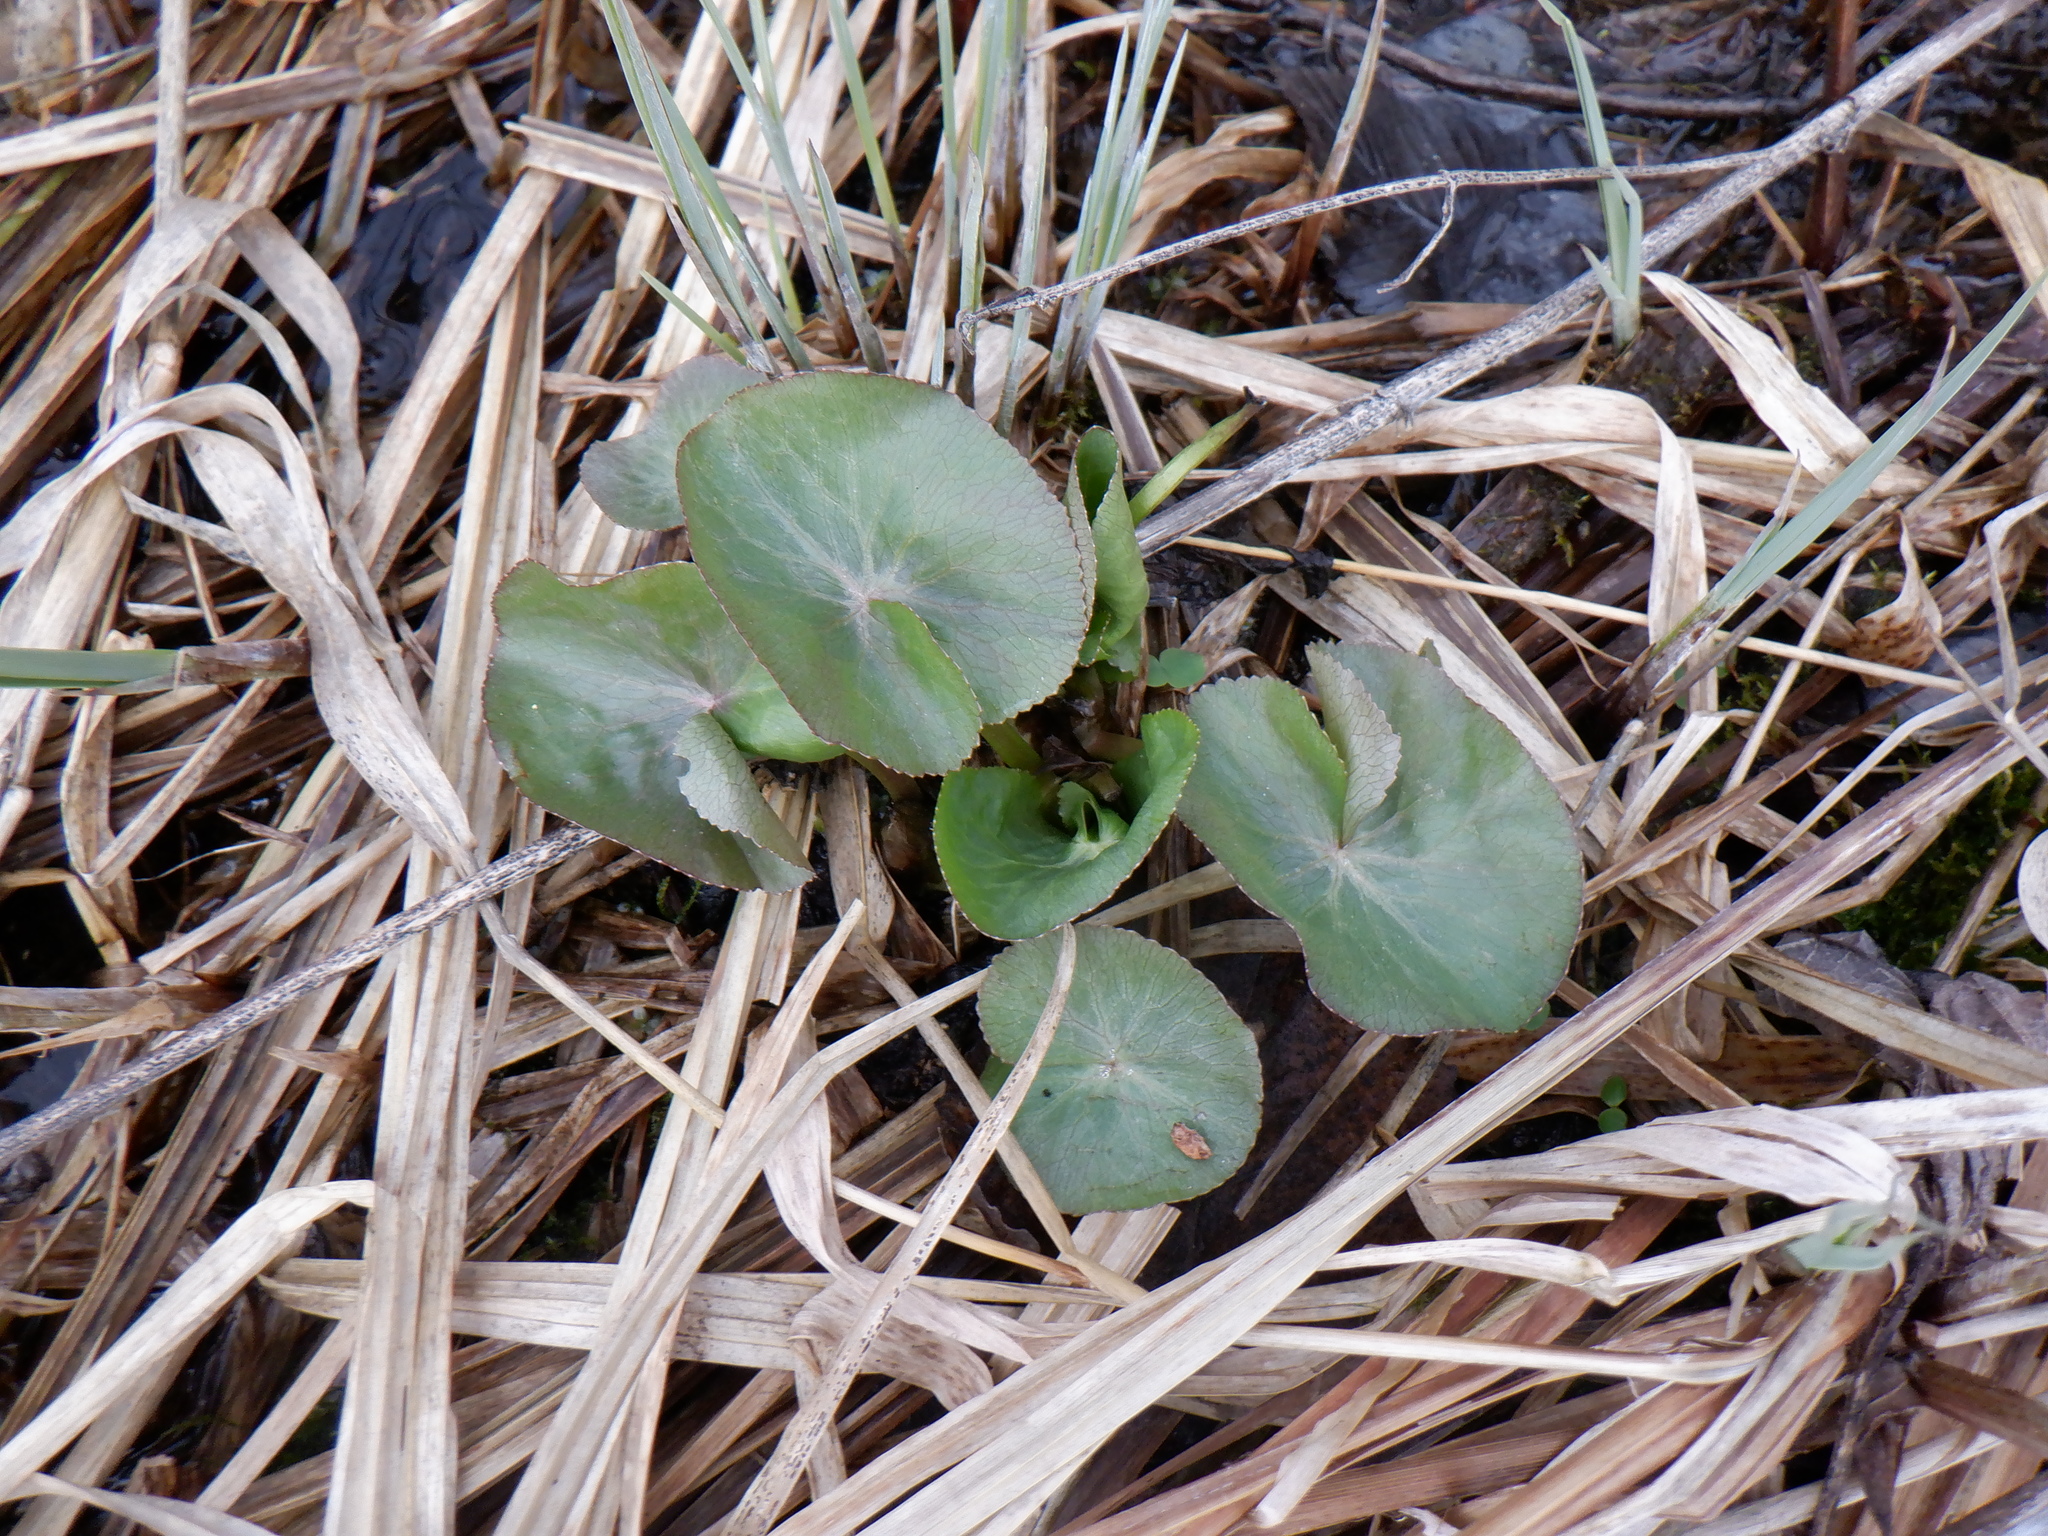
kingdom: Plantae
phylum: Tracheophyta
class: Magnoliopsida
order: Ranunculales
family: Ranunculaceae
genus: Caltha
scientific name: Caltha palustris
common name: Marsh marigold
